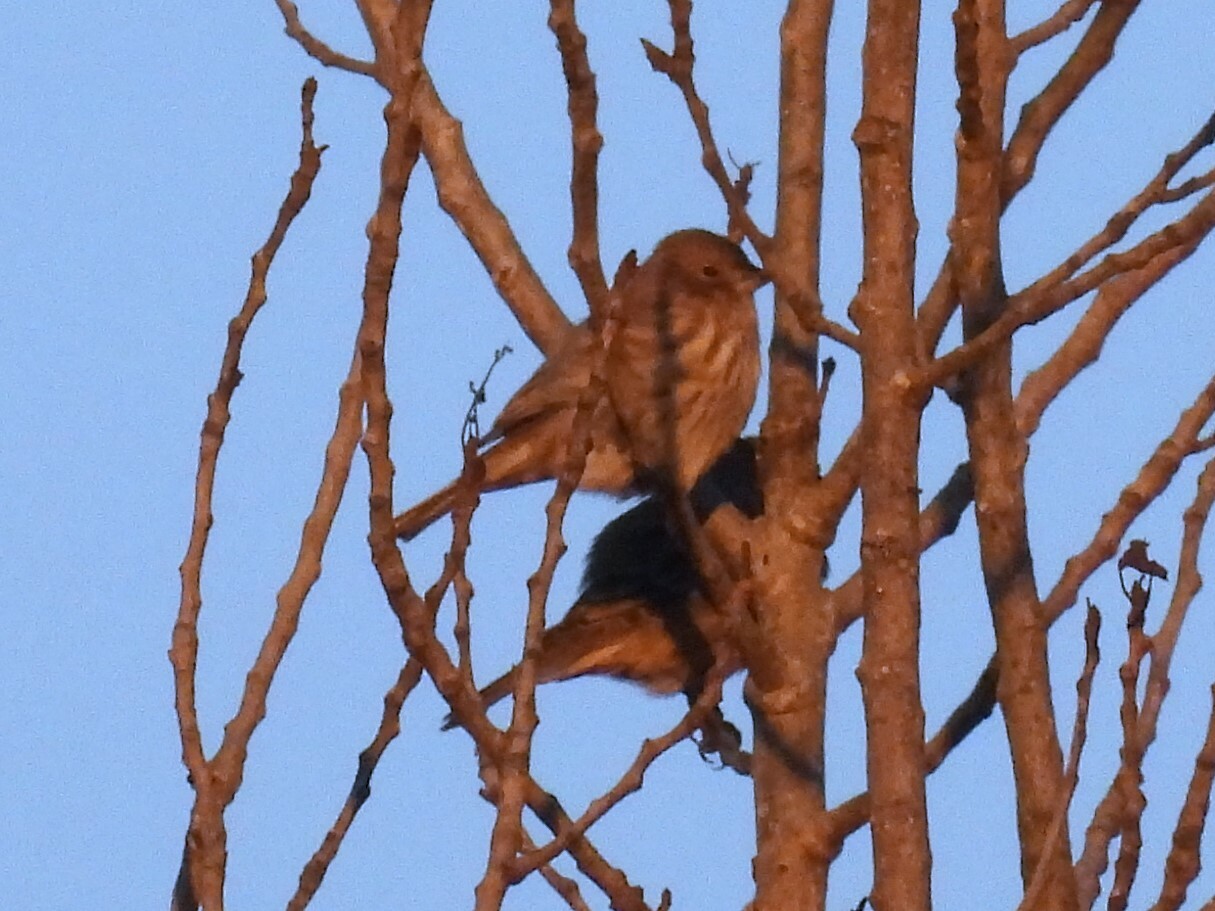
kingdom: Animalia
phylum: Chordata
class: Aves
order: Passeriformes
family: Fringillidae
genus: Haemorhous
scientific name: Haemorhous mexicanus
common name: House finch
